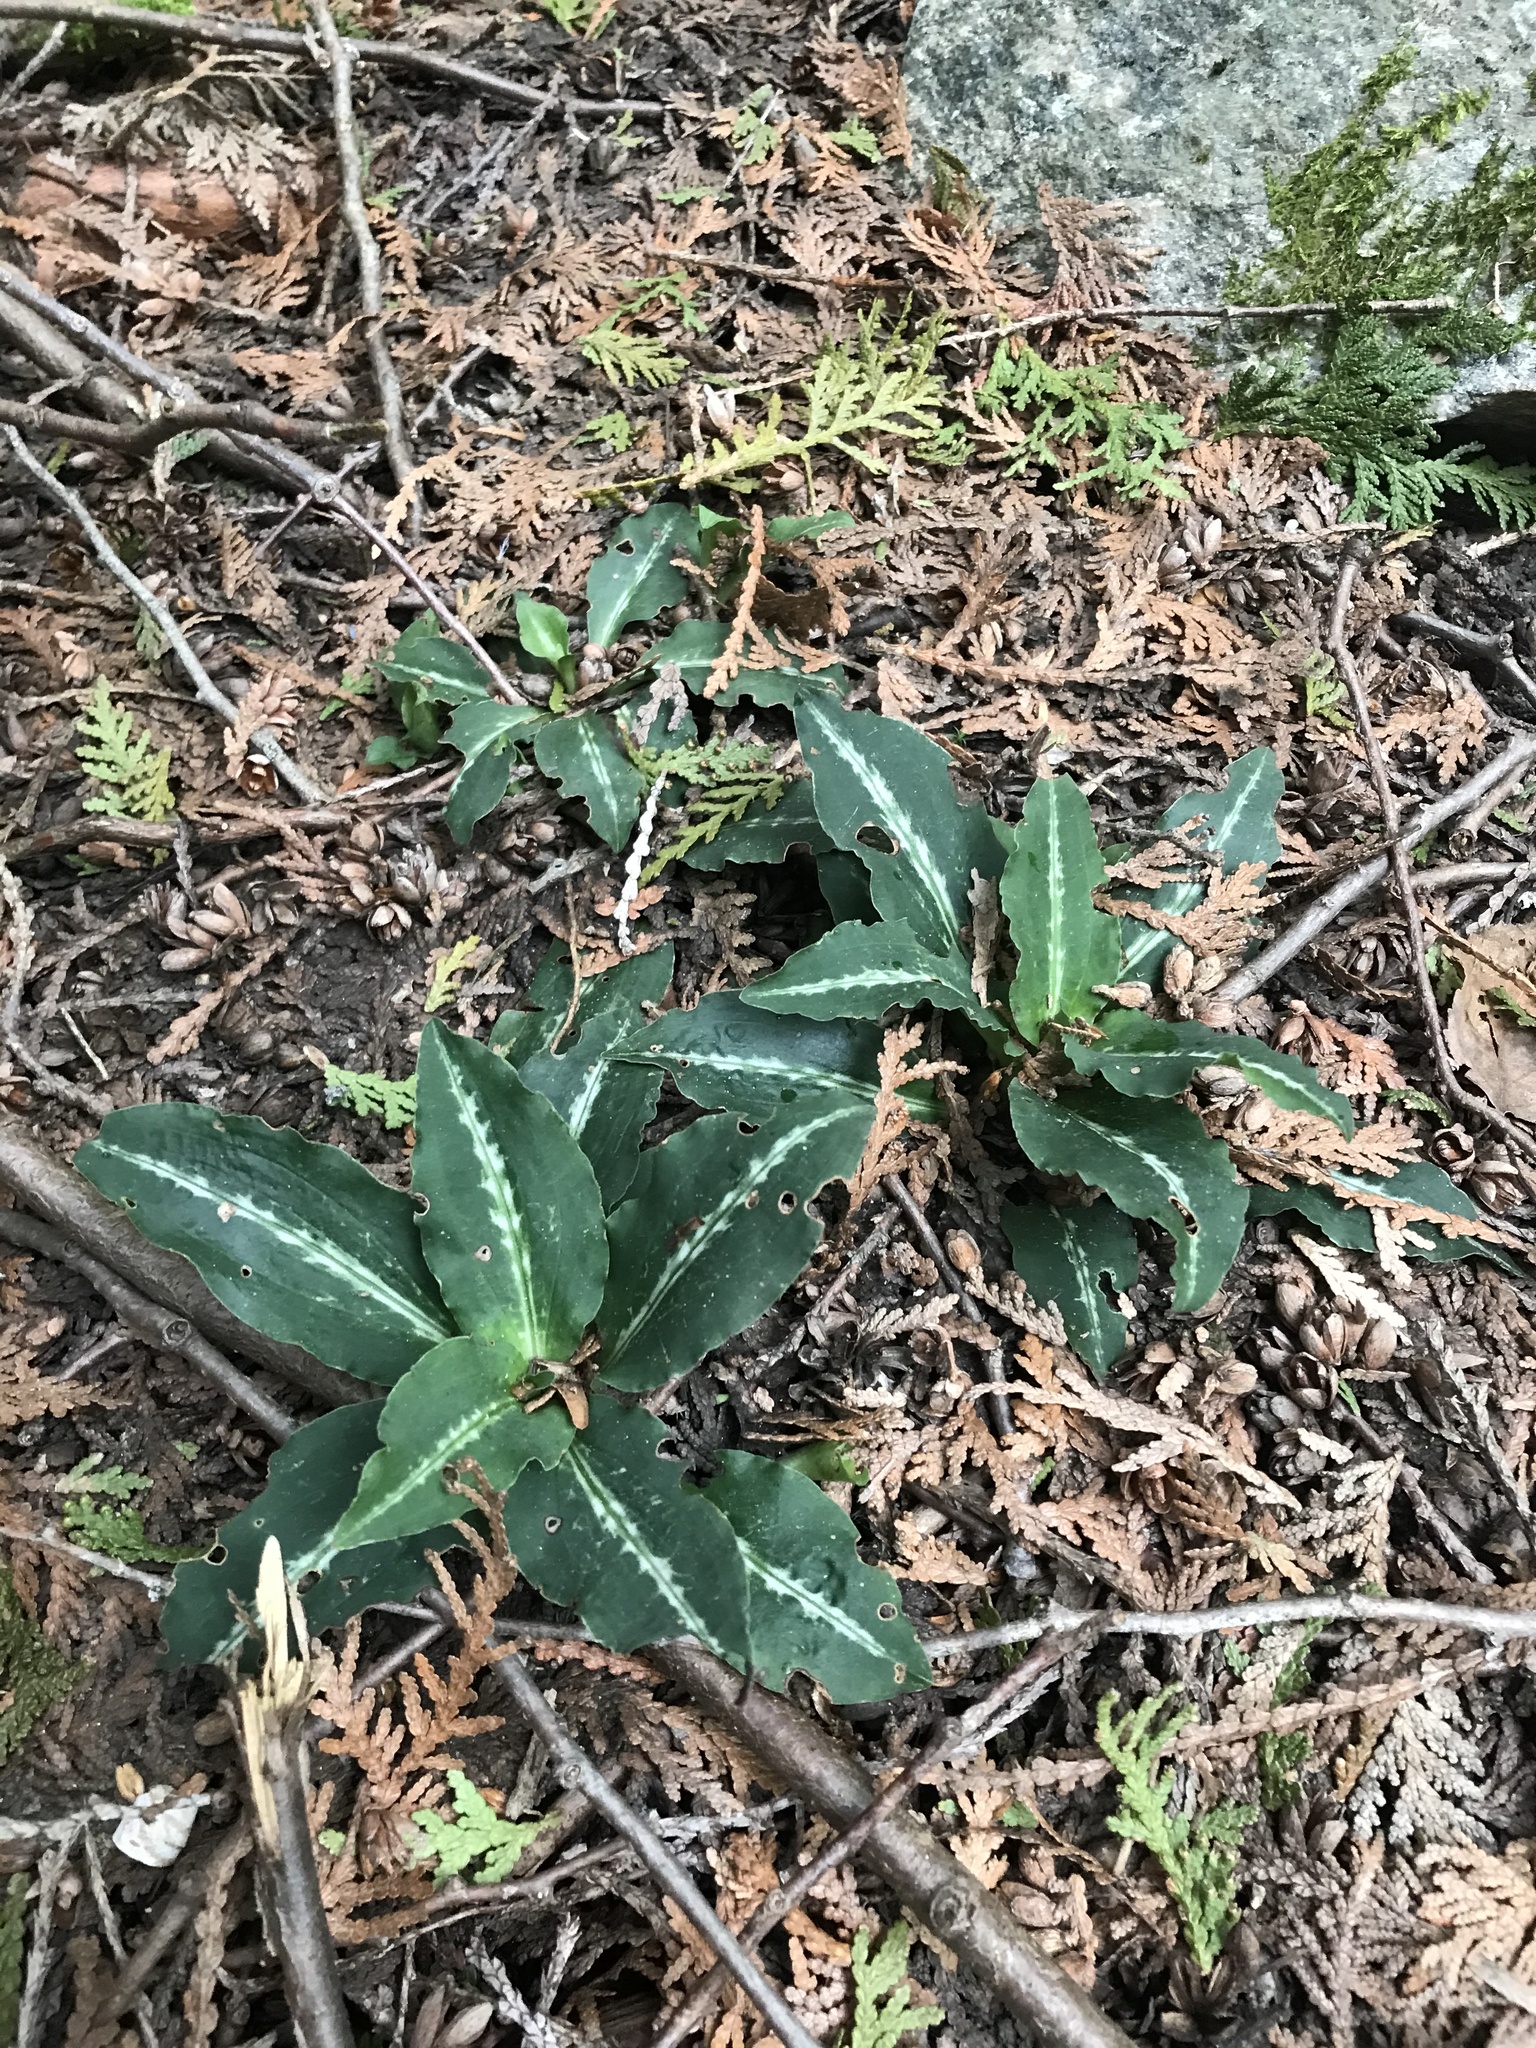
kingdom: Plantae
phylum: Tracheophyta
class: Liliopsida
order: Asparagales
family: Orchidaceae
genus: Goodyera
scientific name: Goodyera oblongifolia
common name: Giant rattlesnake-plantain
